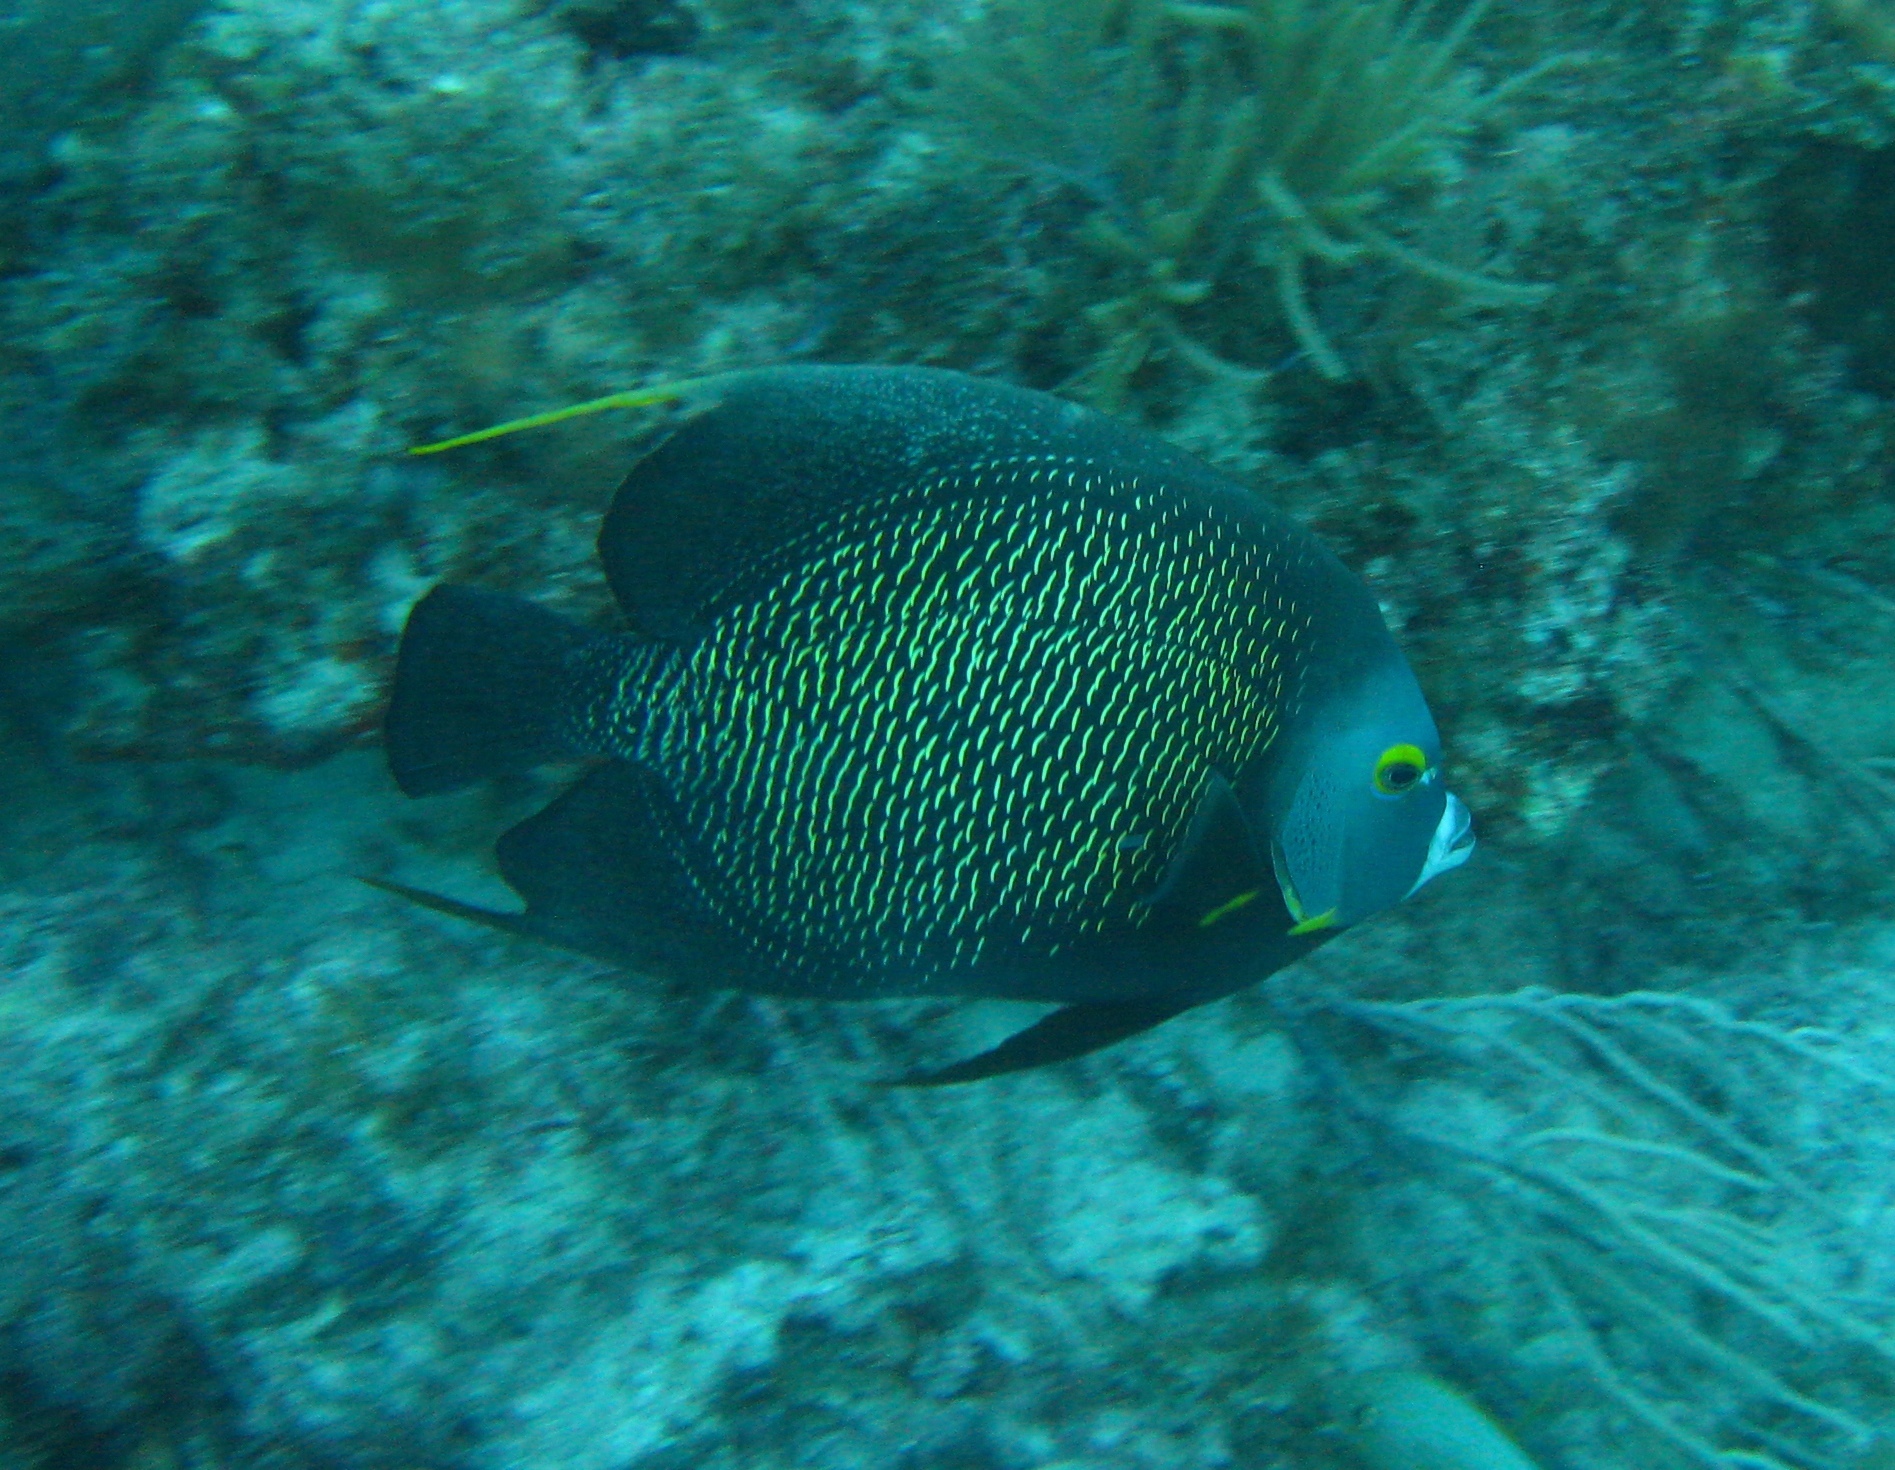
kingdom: Animalia
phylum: Chordata
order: Perciformes
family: Pomacanthidae
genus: Pomacanthus
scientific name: Pomacanthus paru
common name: French angelfish
